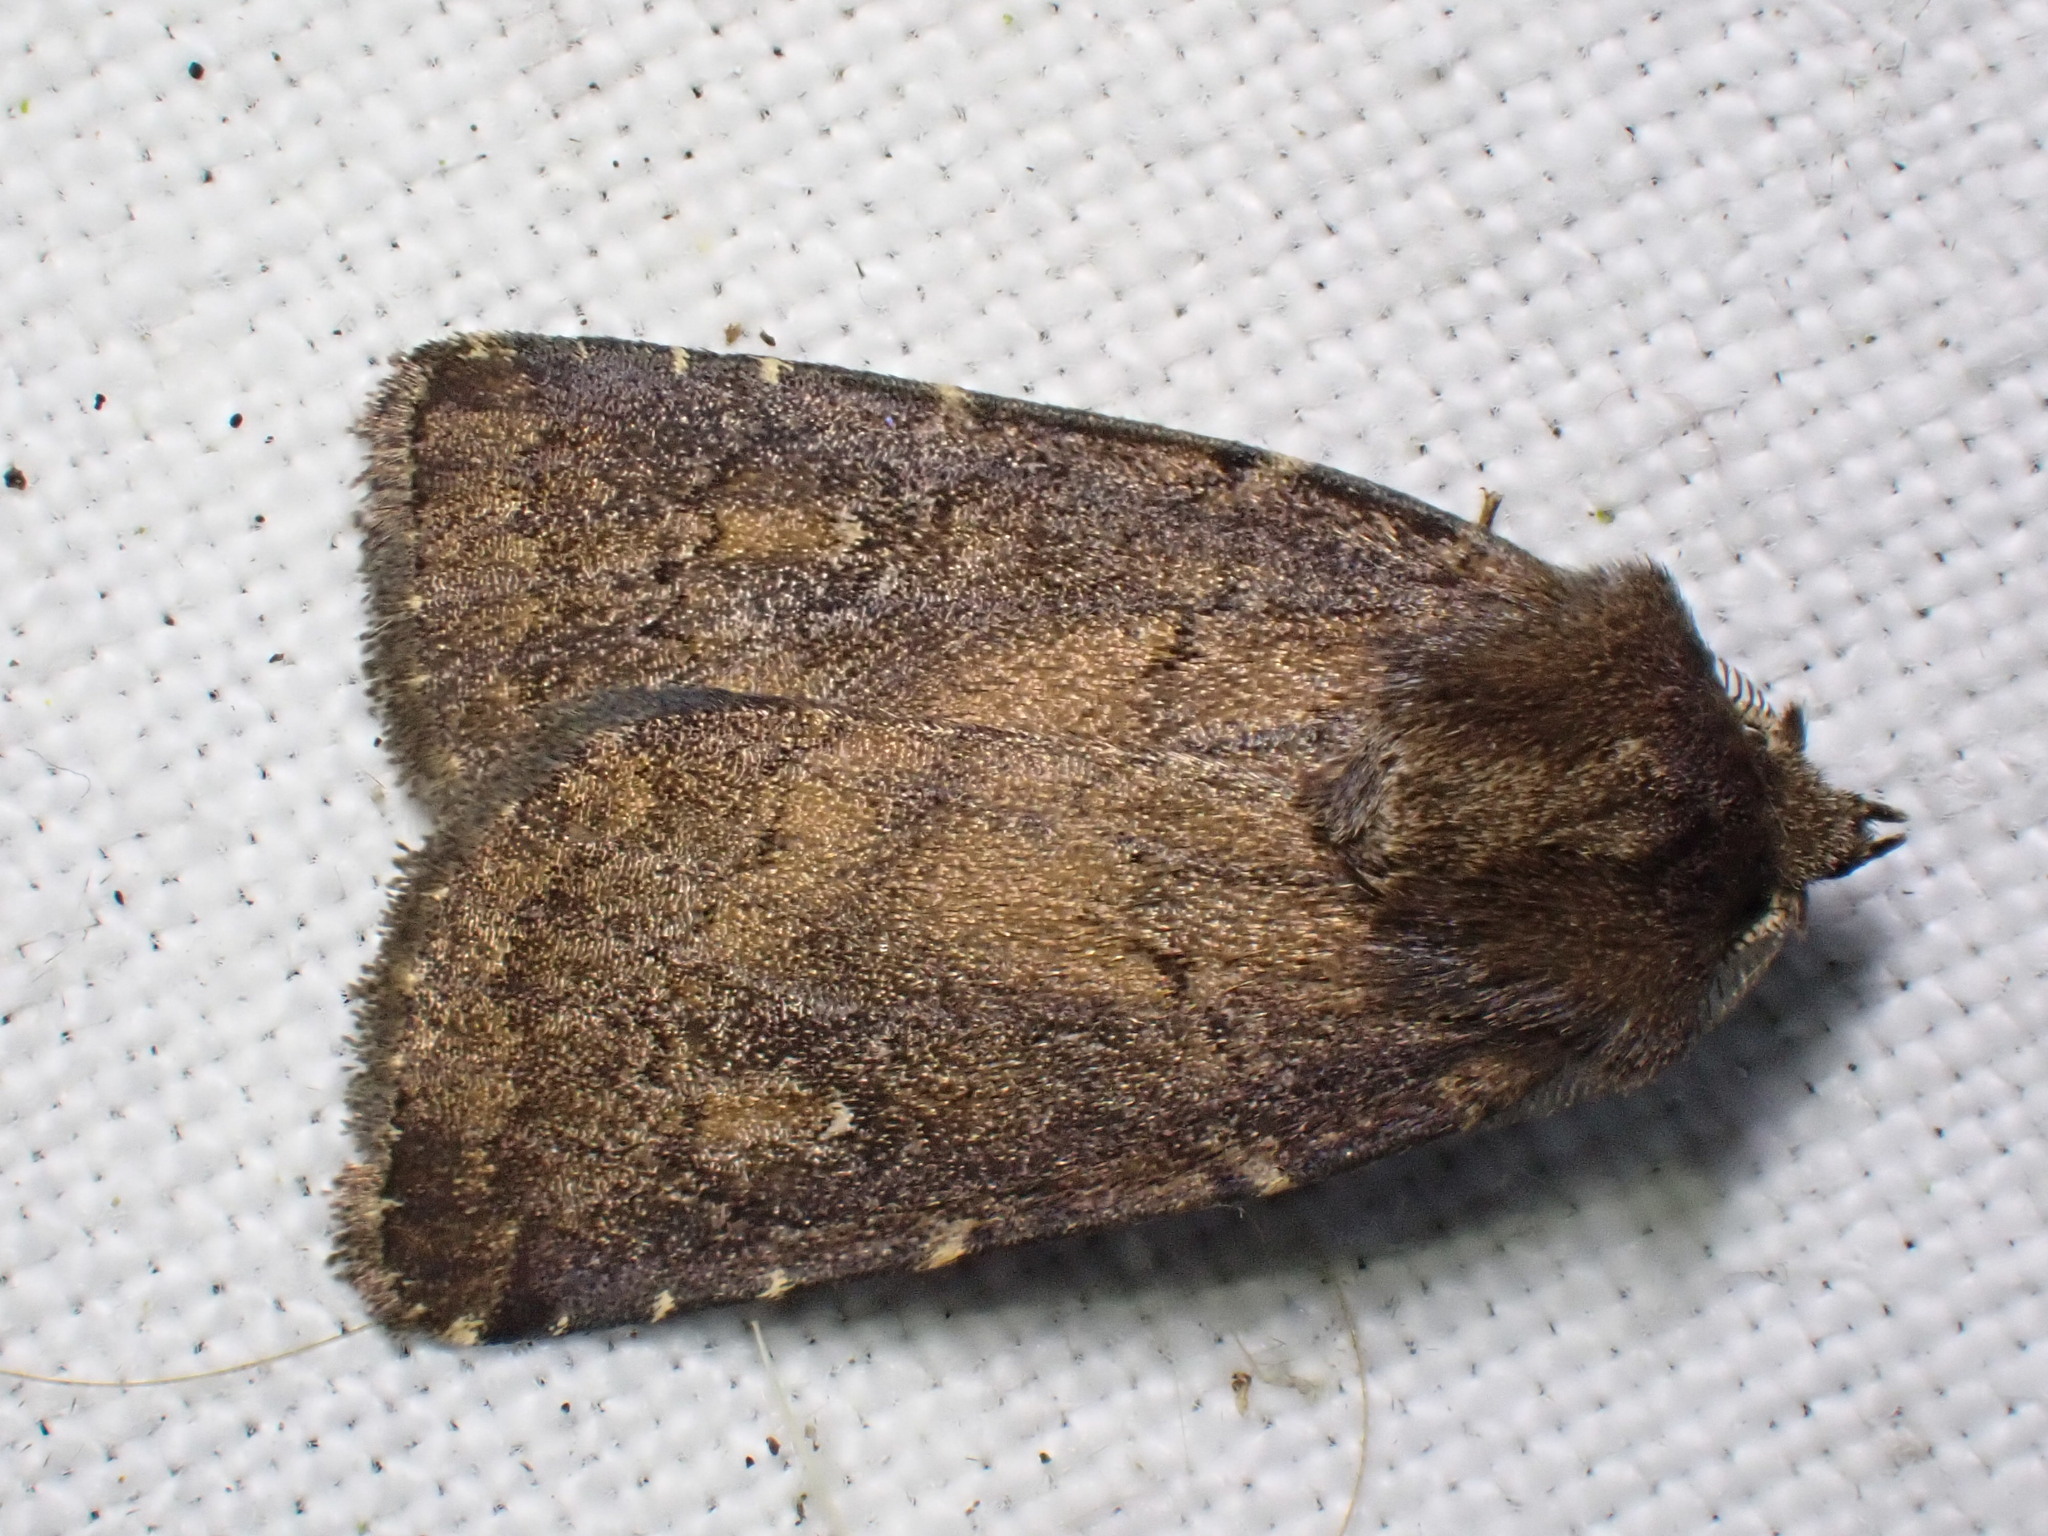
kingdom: Animalia
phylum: Arthropoda
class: Insecta
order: Lepidoptera
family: Noctuidae
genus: Charanyca
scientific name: Charanyca ferruginea
